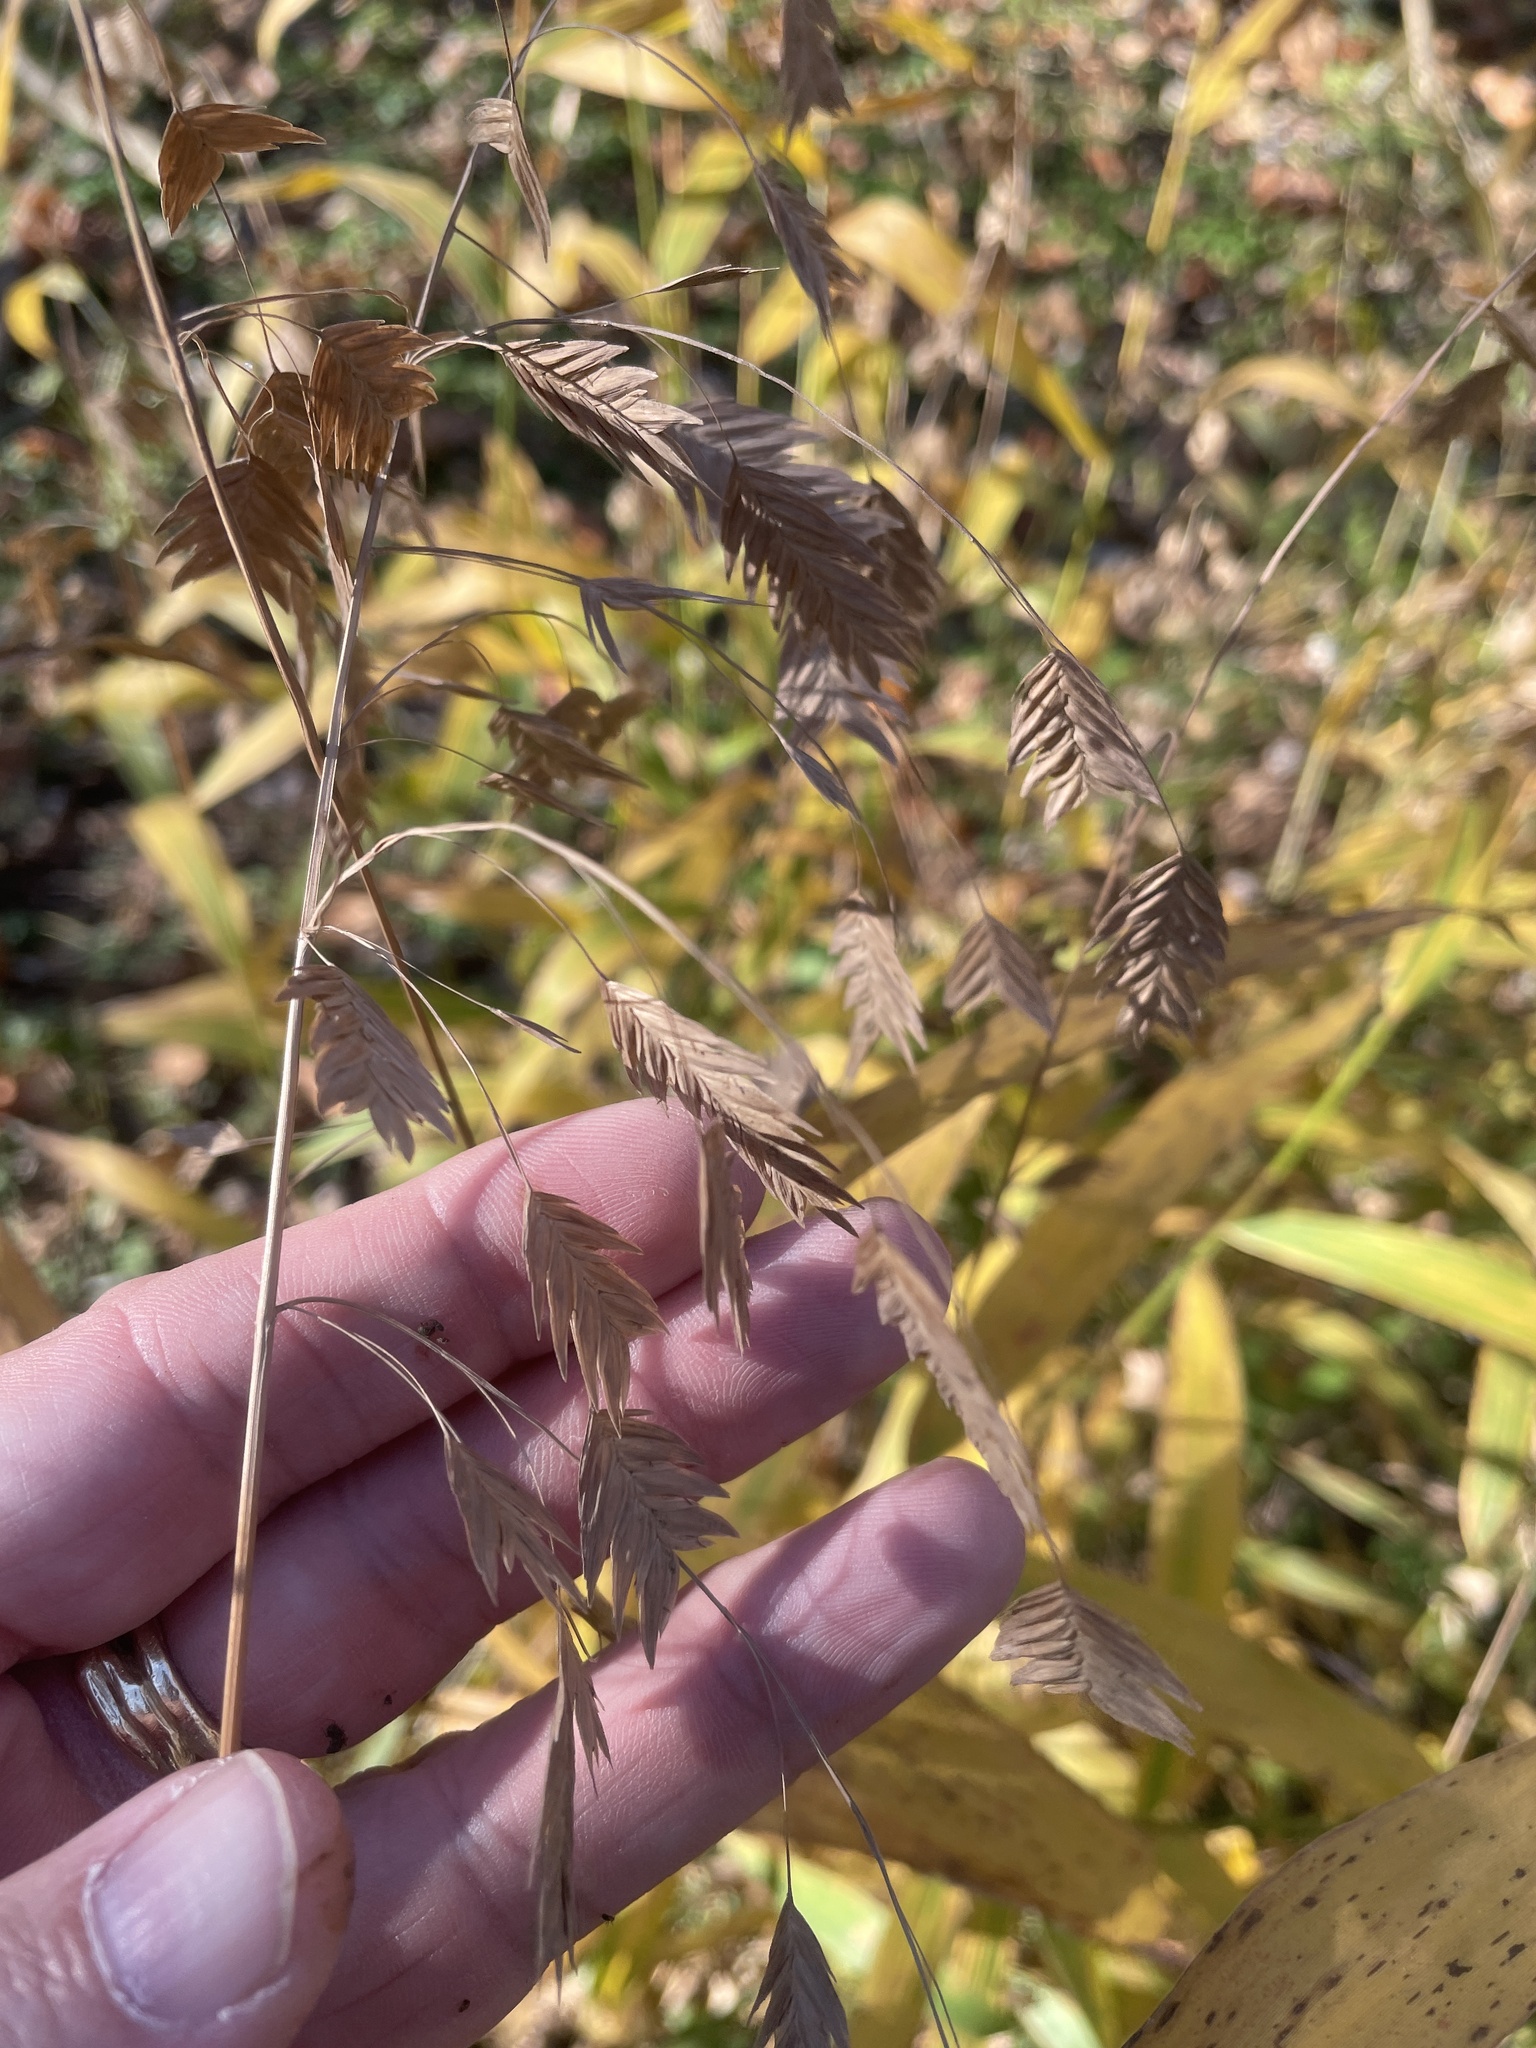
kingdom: Plantae
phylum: Tracheophyta
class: Liliopsida
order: Poales
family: Poaceae
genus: Chasmanthium
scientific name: Chasmanthium latifolium
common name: Broad-leaved chasmanthium
